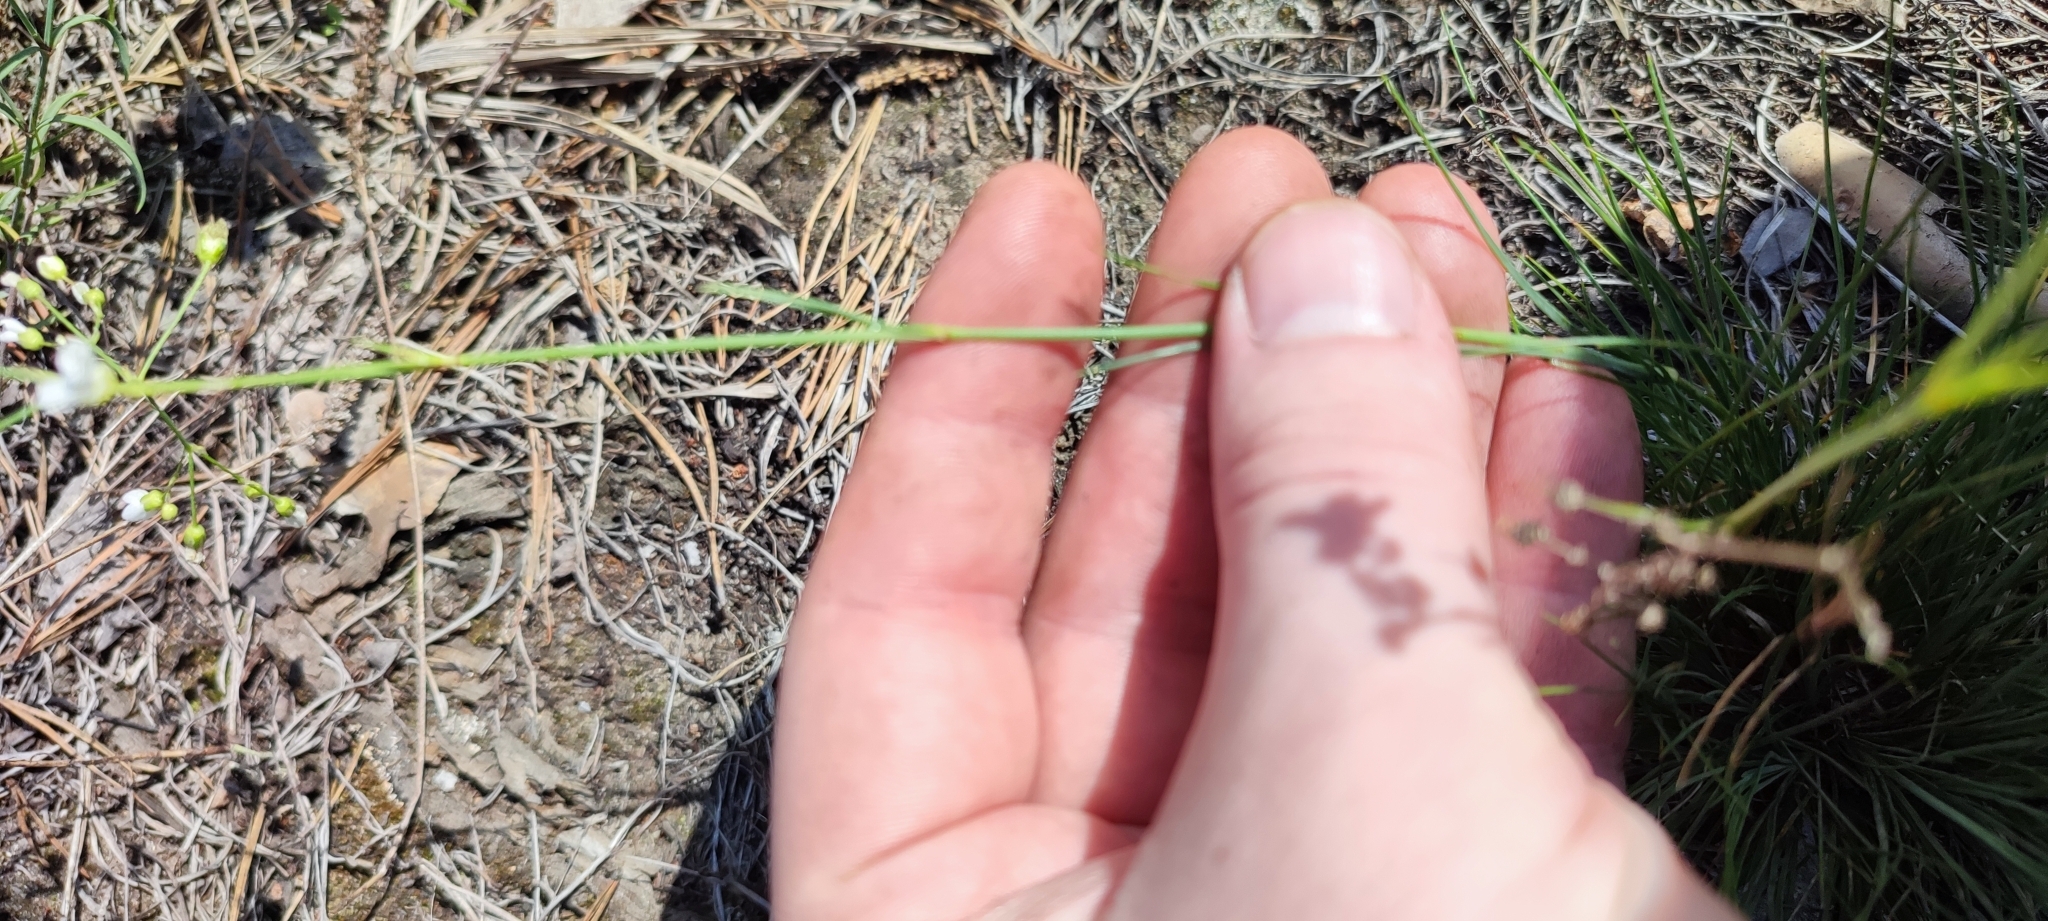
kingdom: Plantae
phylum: Tracheophyta
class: Magnoliopsida
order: Caryophyllales
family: Caryophyllaceae
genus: Eremogone
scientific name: Eremogone saxatilis
